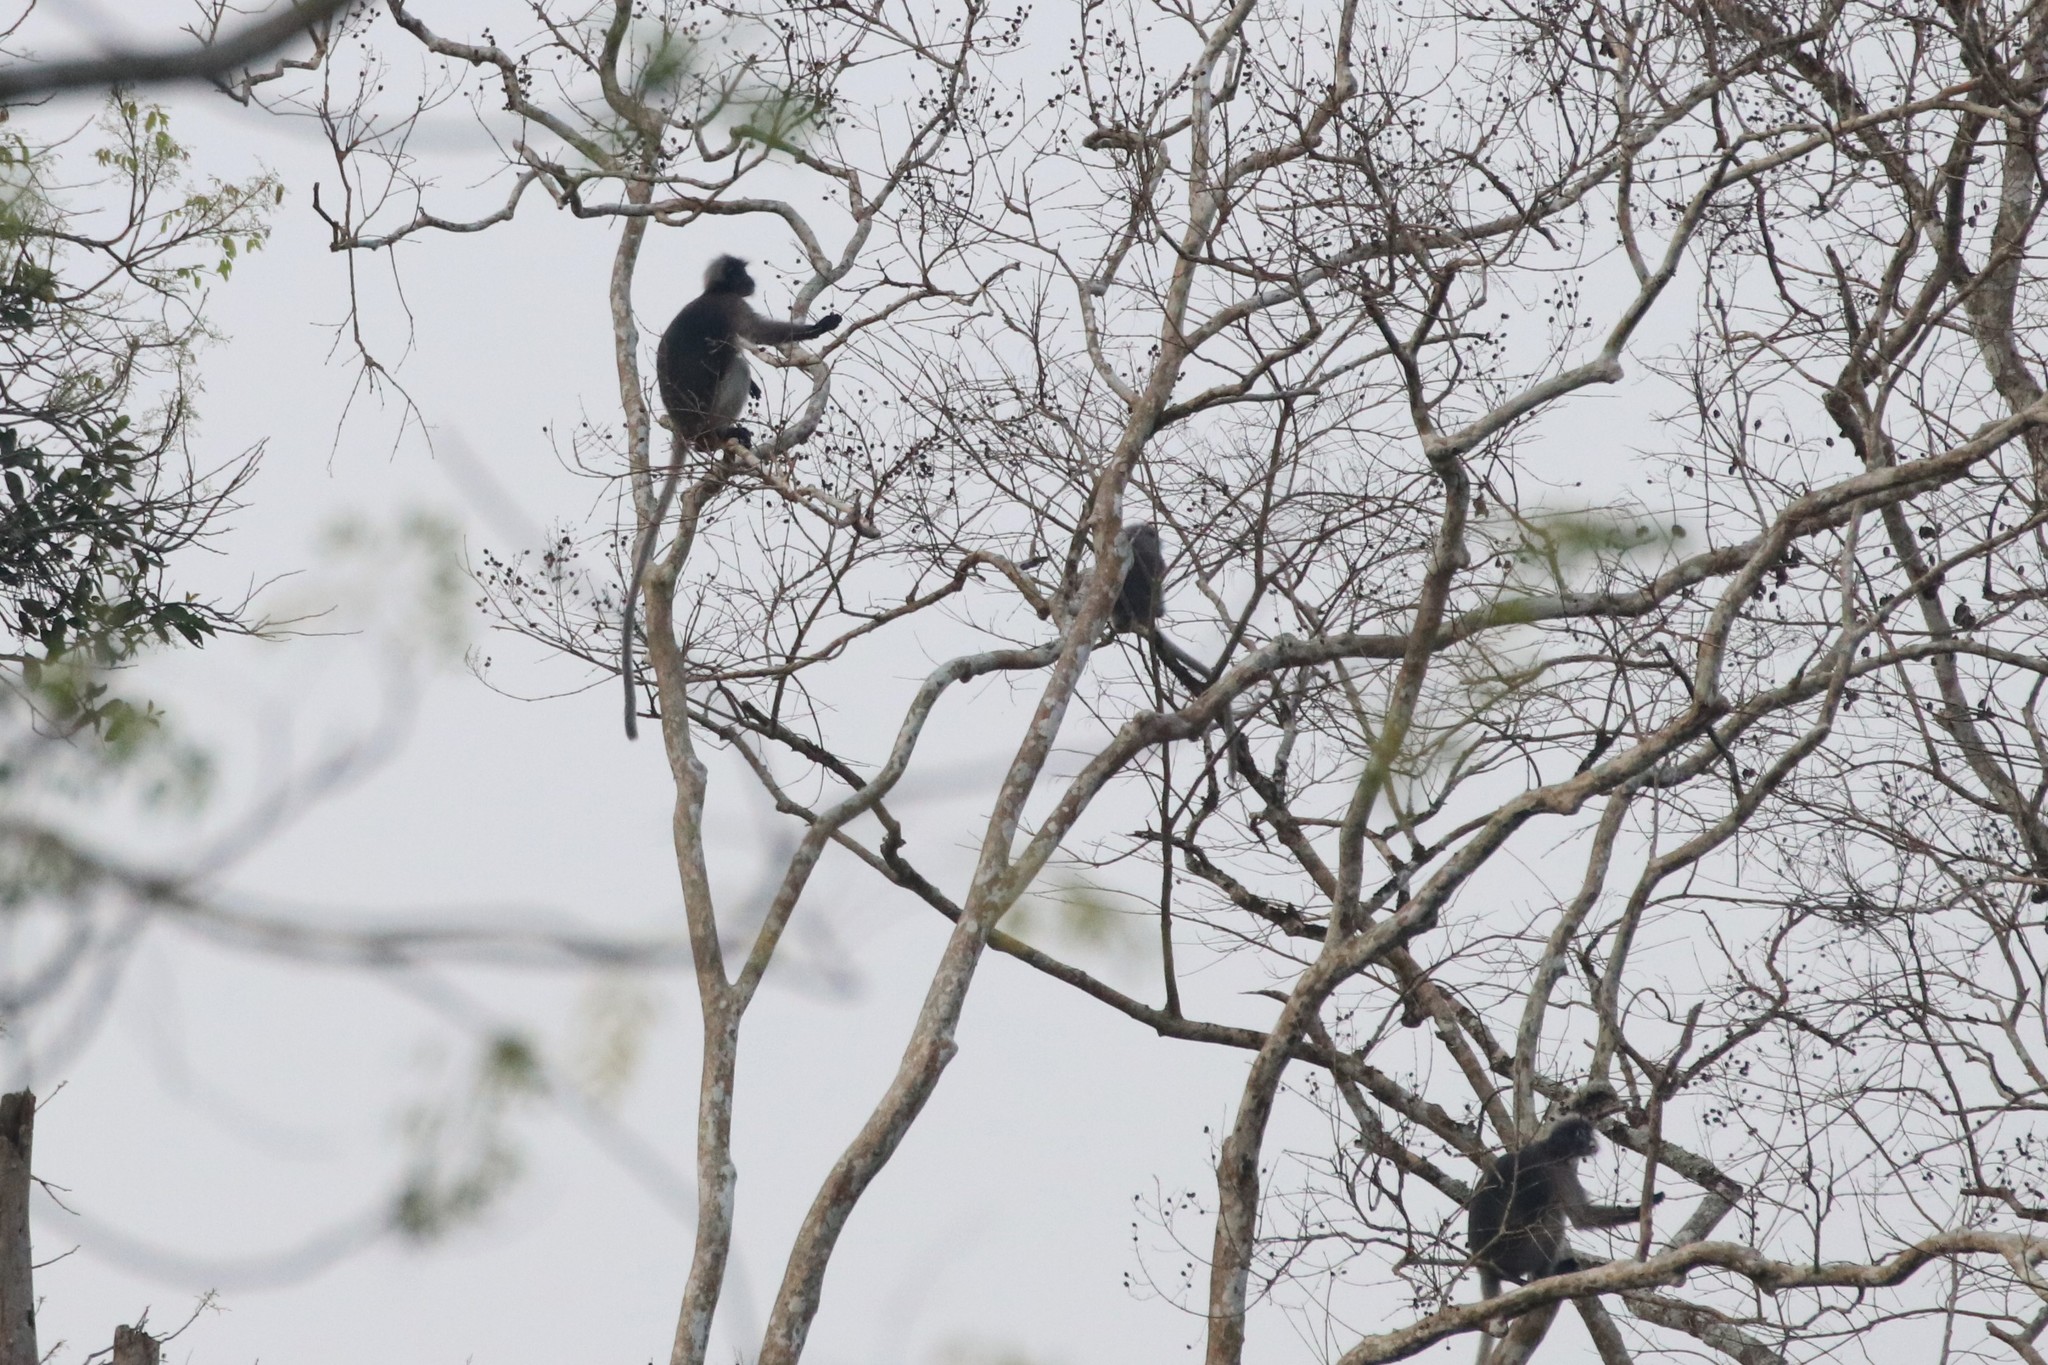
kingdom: Animalia
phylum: Chordata
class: Mammalia
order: Primates
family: Cercopithecidae
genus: Trachypithecus
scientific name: Trachypithecus obscurus
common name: Dusky leaf-monkey
